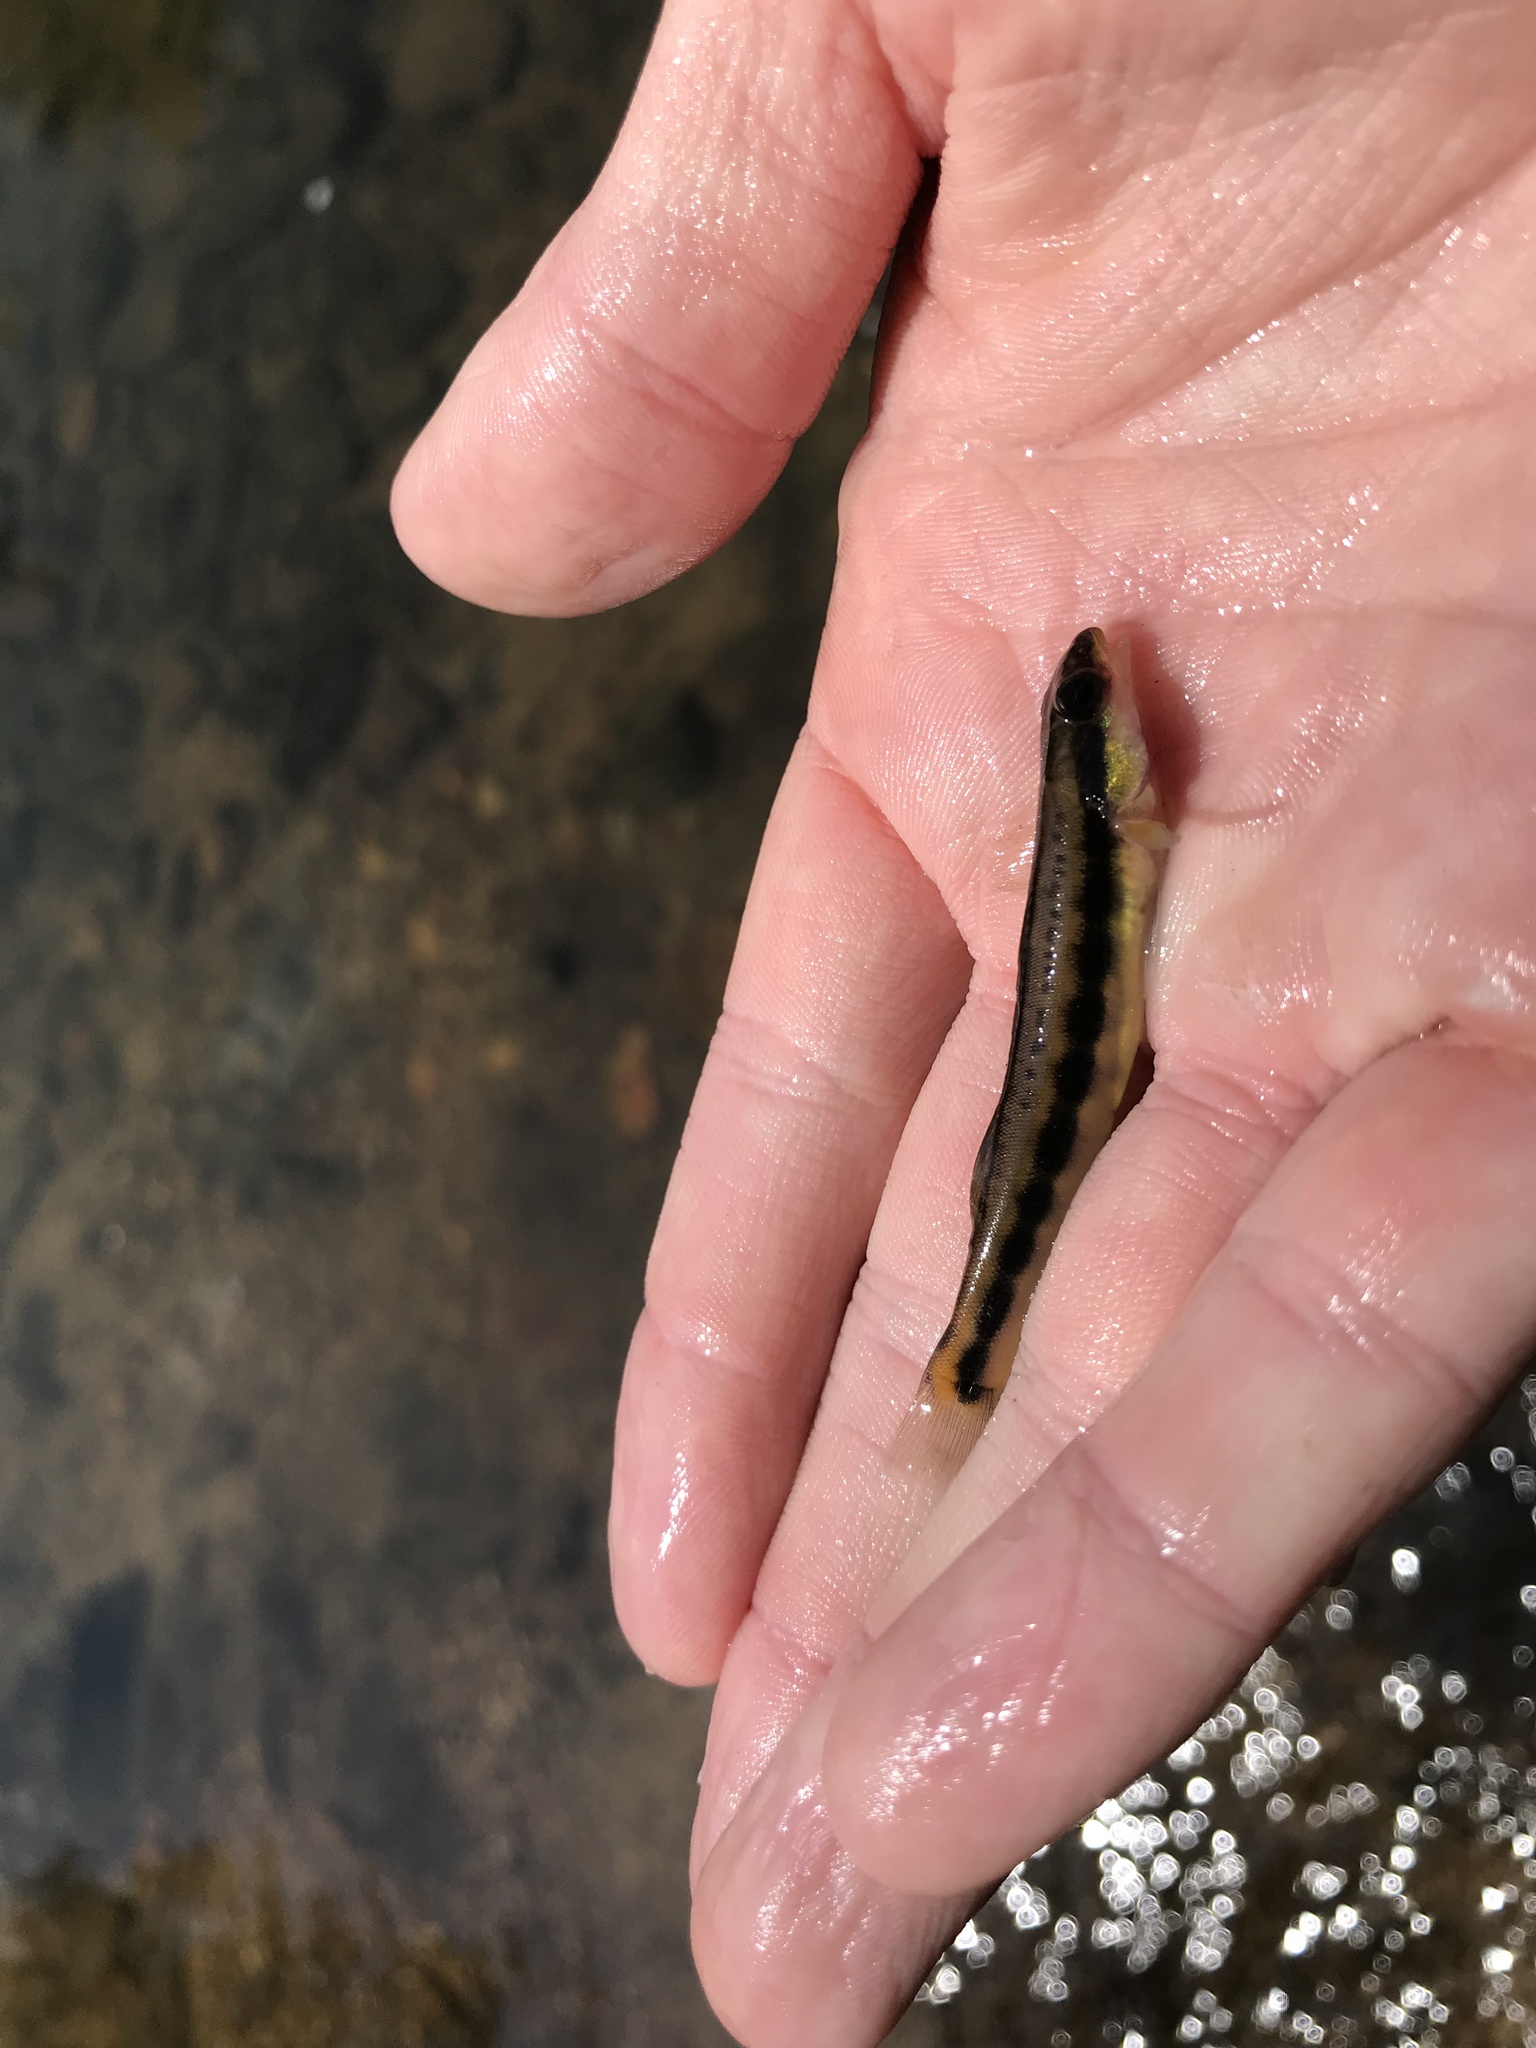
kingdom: Animalia
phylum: Chordata
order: Perciformes
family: Percidae
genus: Percina
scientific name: Percina aurantiaca
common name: Tangerine darter
